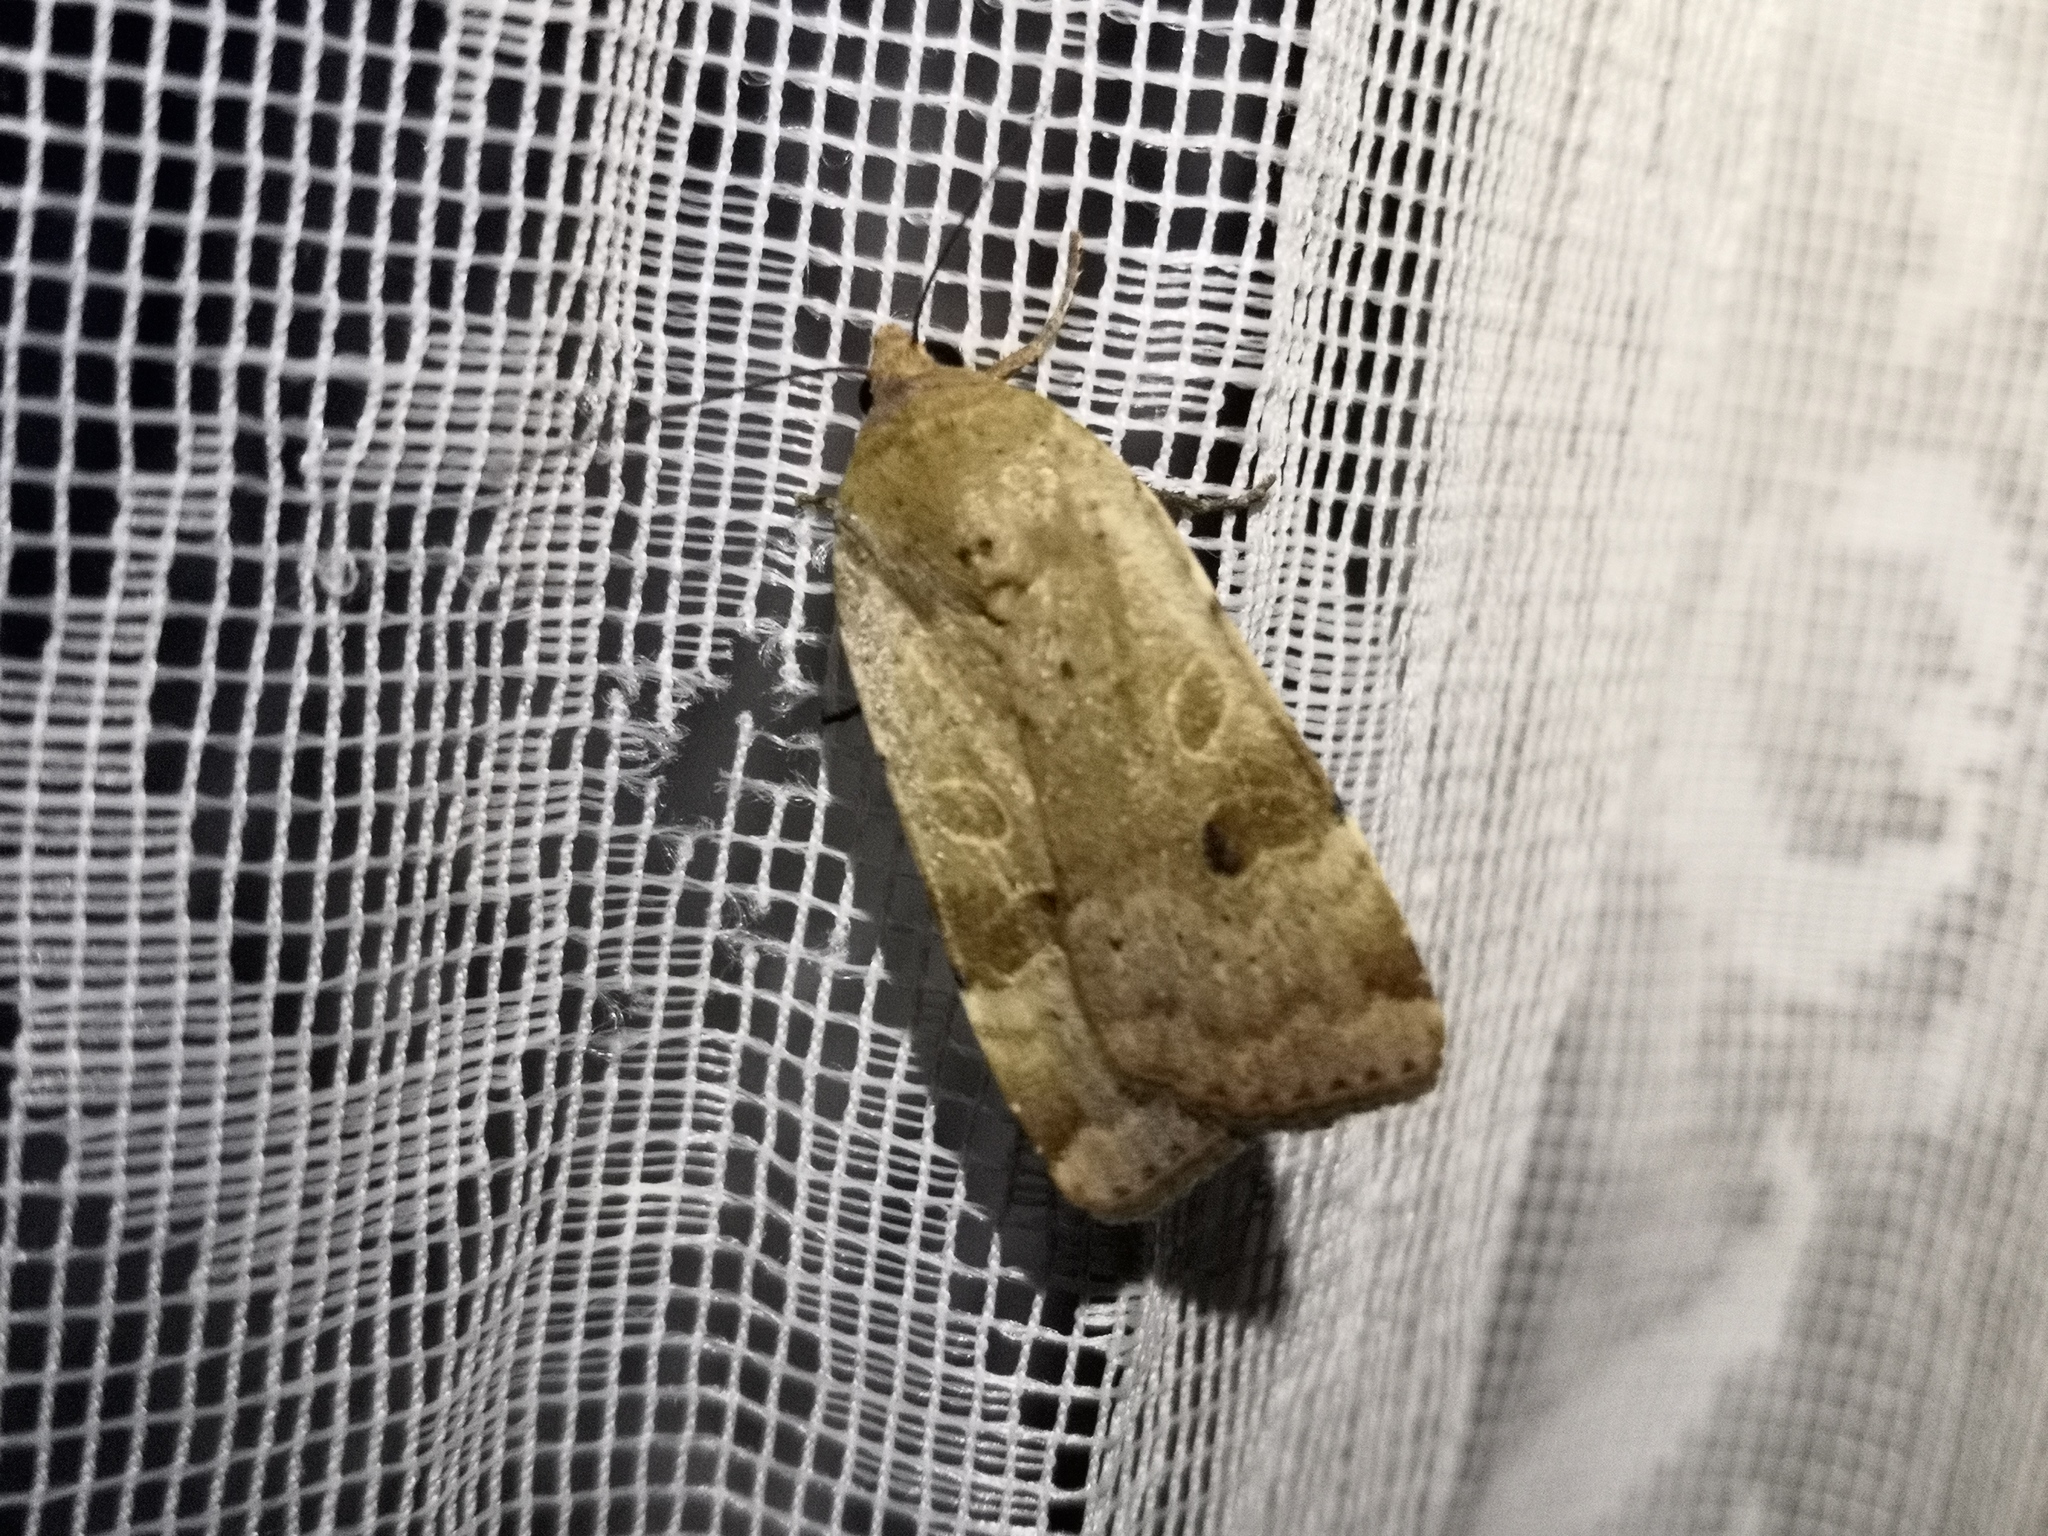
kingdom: Animalia
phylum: Arthropoda
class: Insecta
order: Lepidoptera
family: Noctuidae
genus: Noctua
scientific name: Noctua interposita
